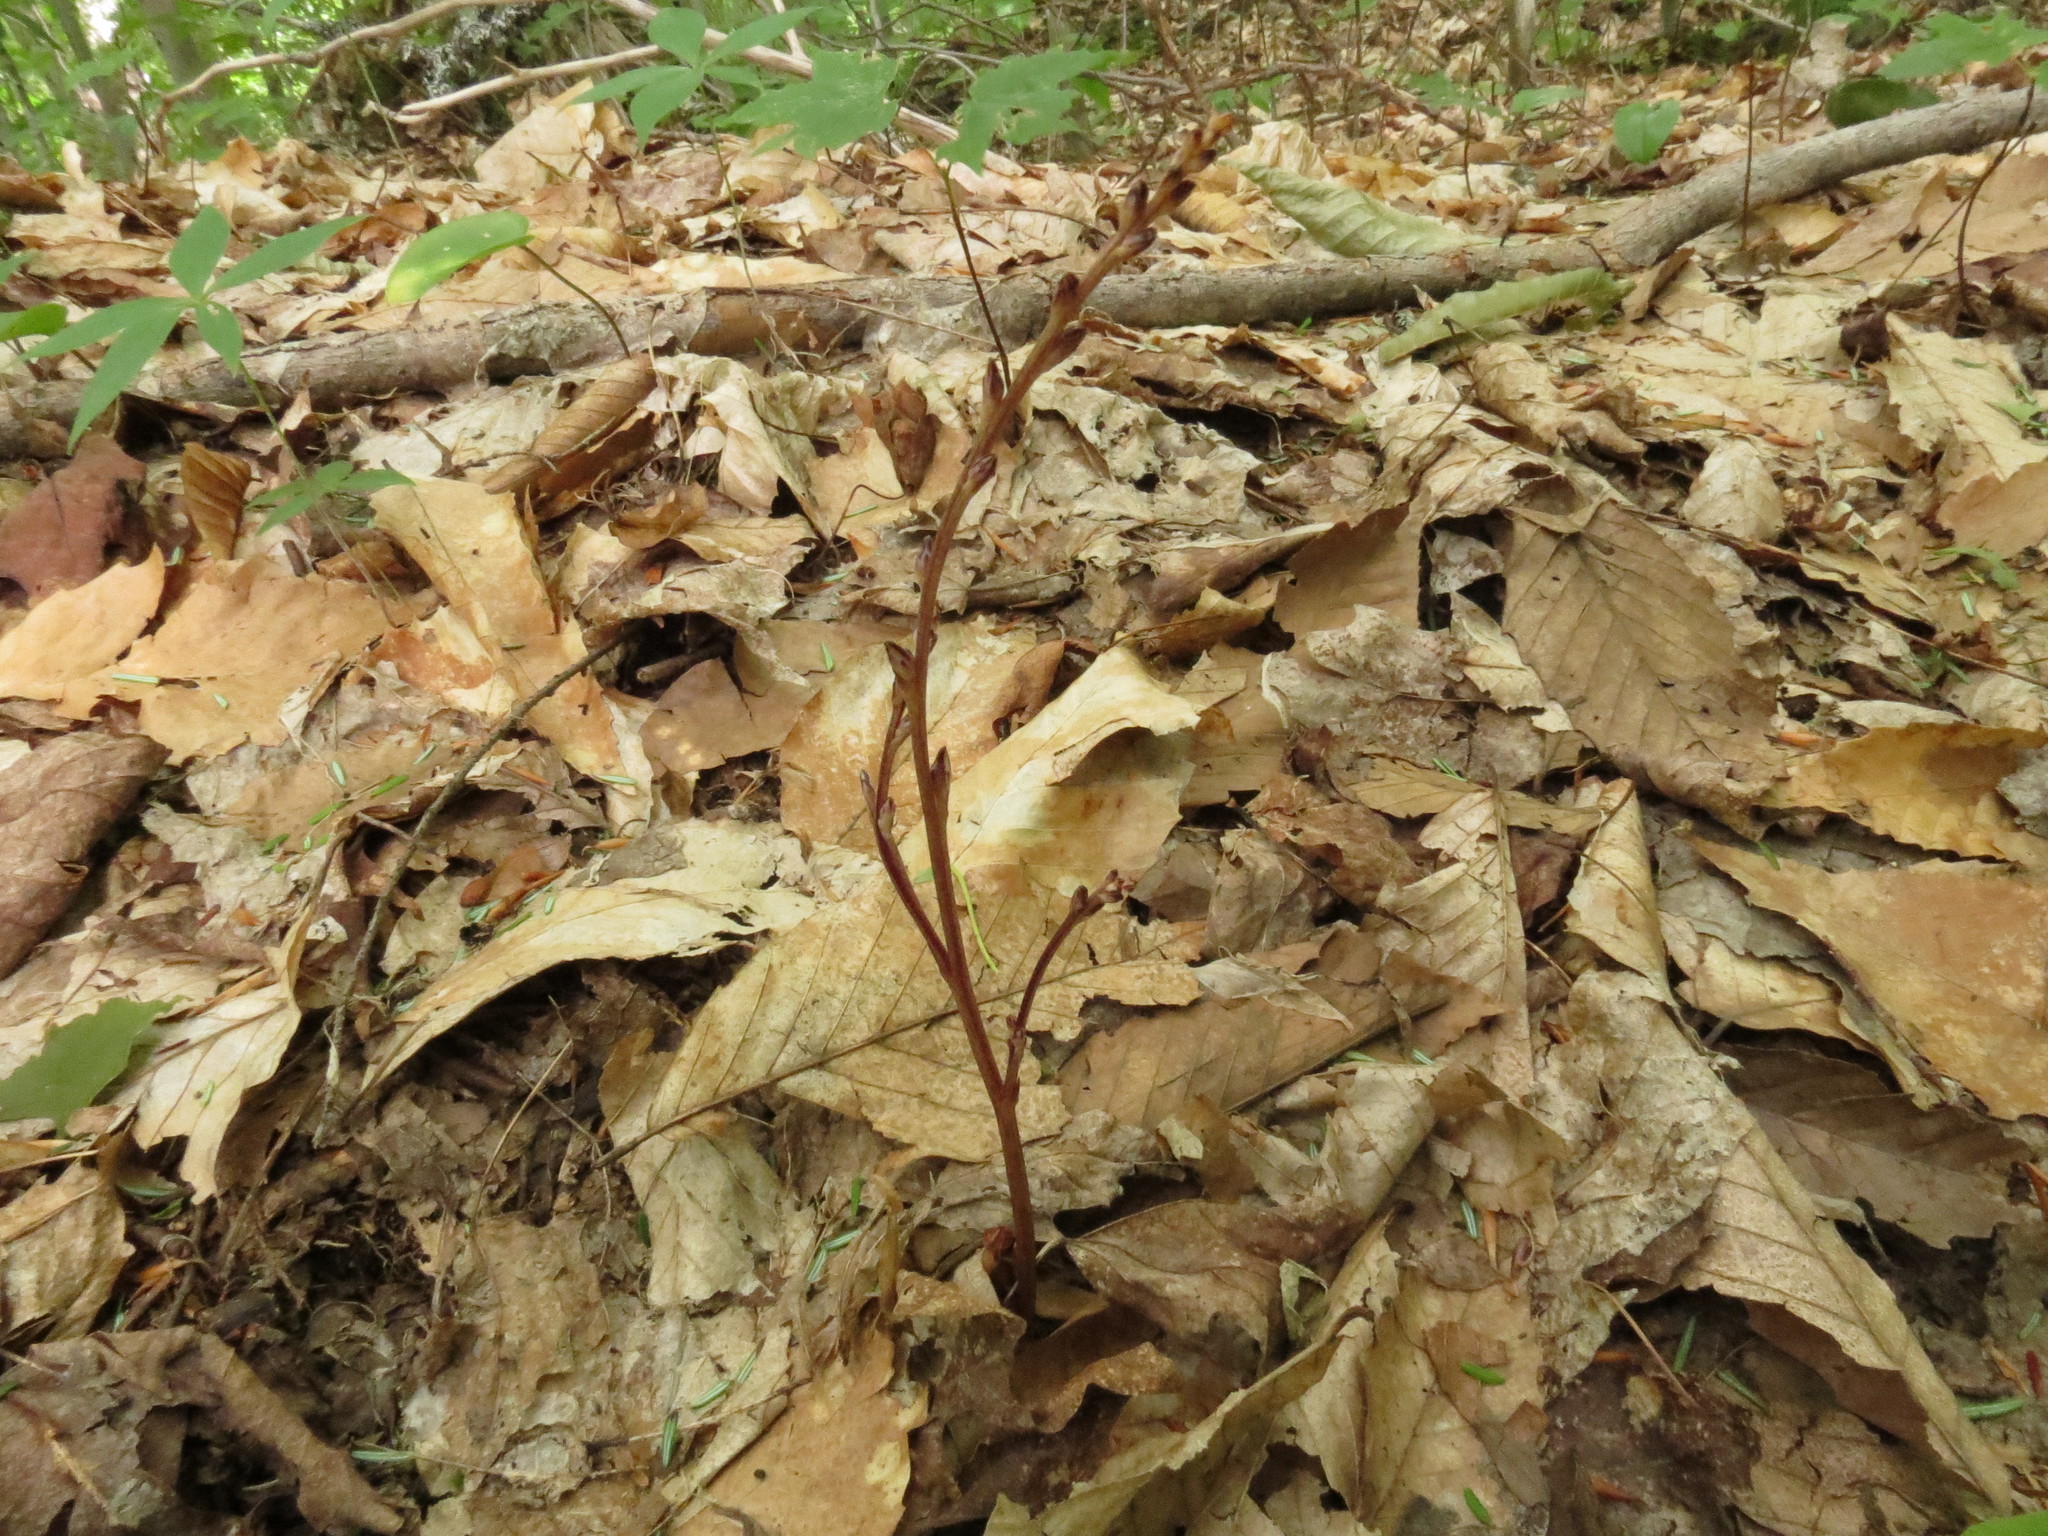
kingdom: Plantae
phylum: Tracheophyta
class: Magnoliopsida
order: Lamiales
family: Orobanchaceae
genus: Epifagus
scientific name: Epifagus virginiana
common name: Beechdrops
